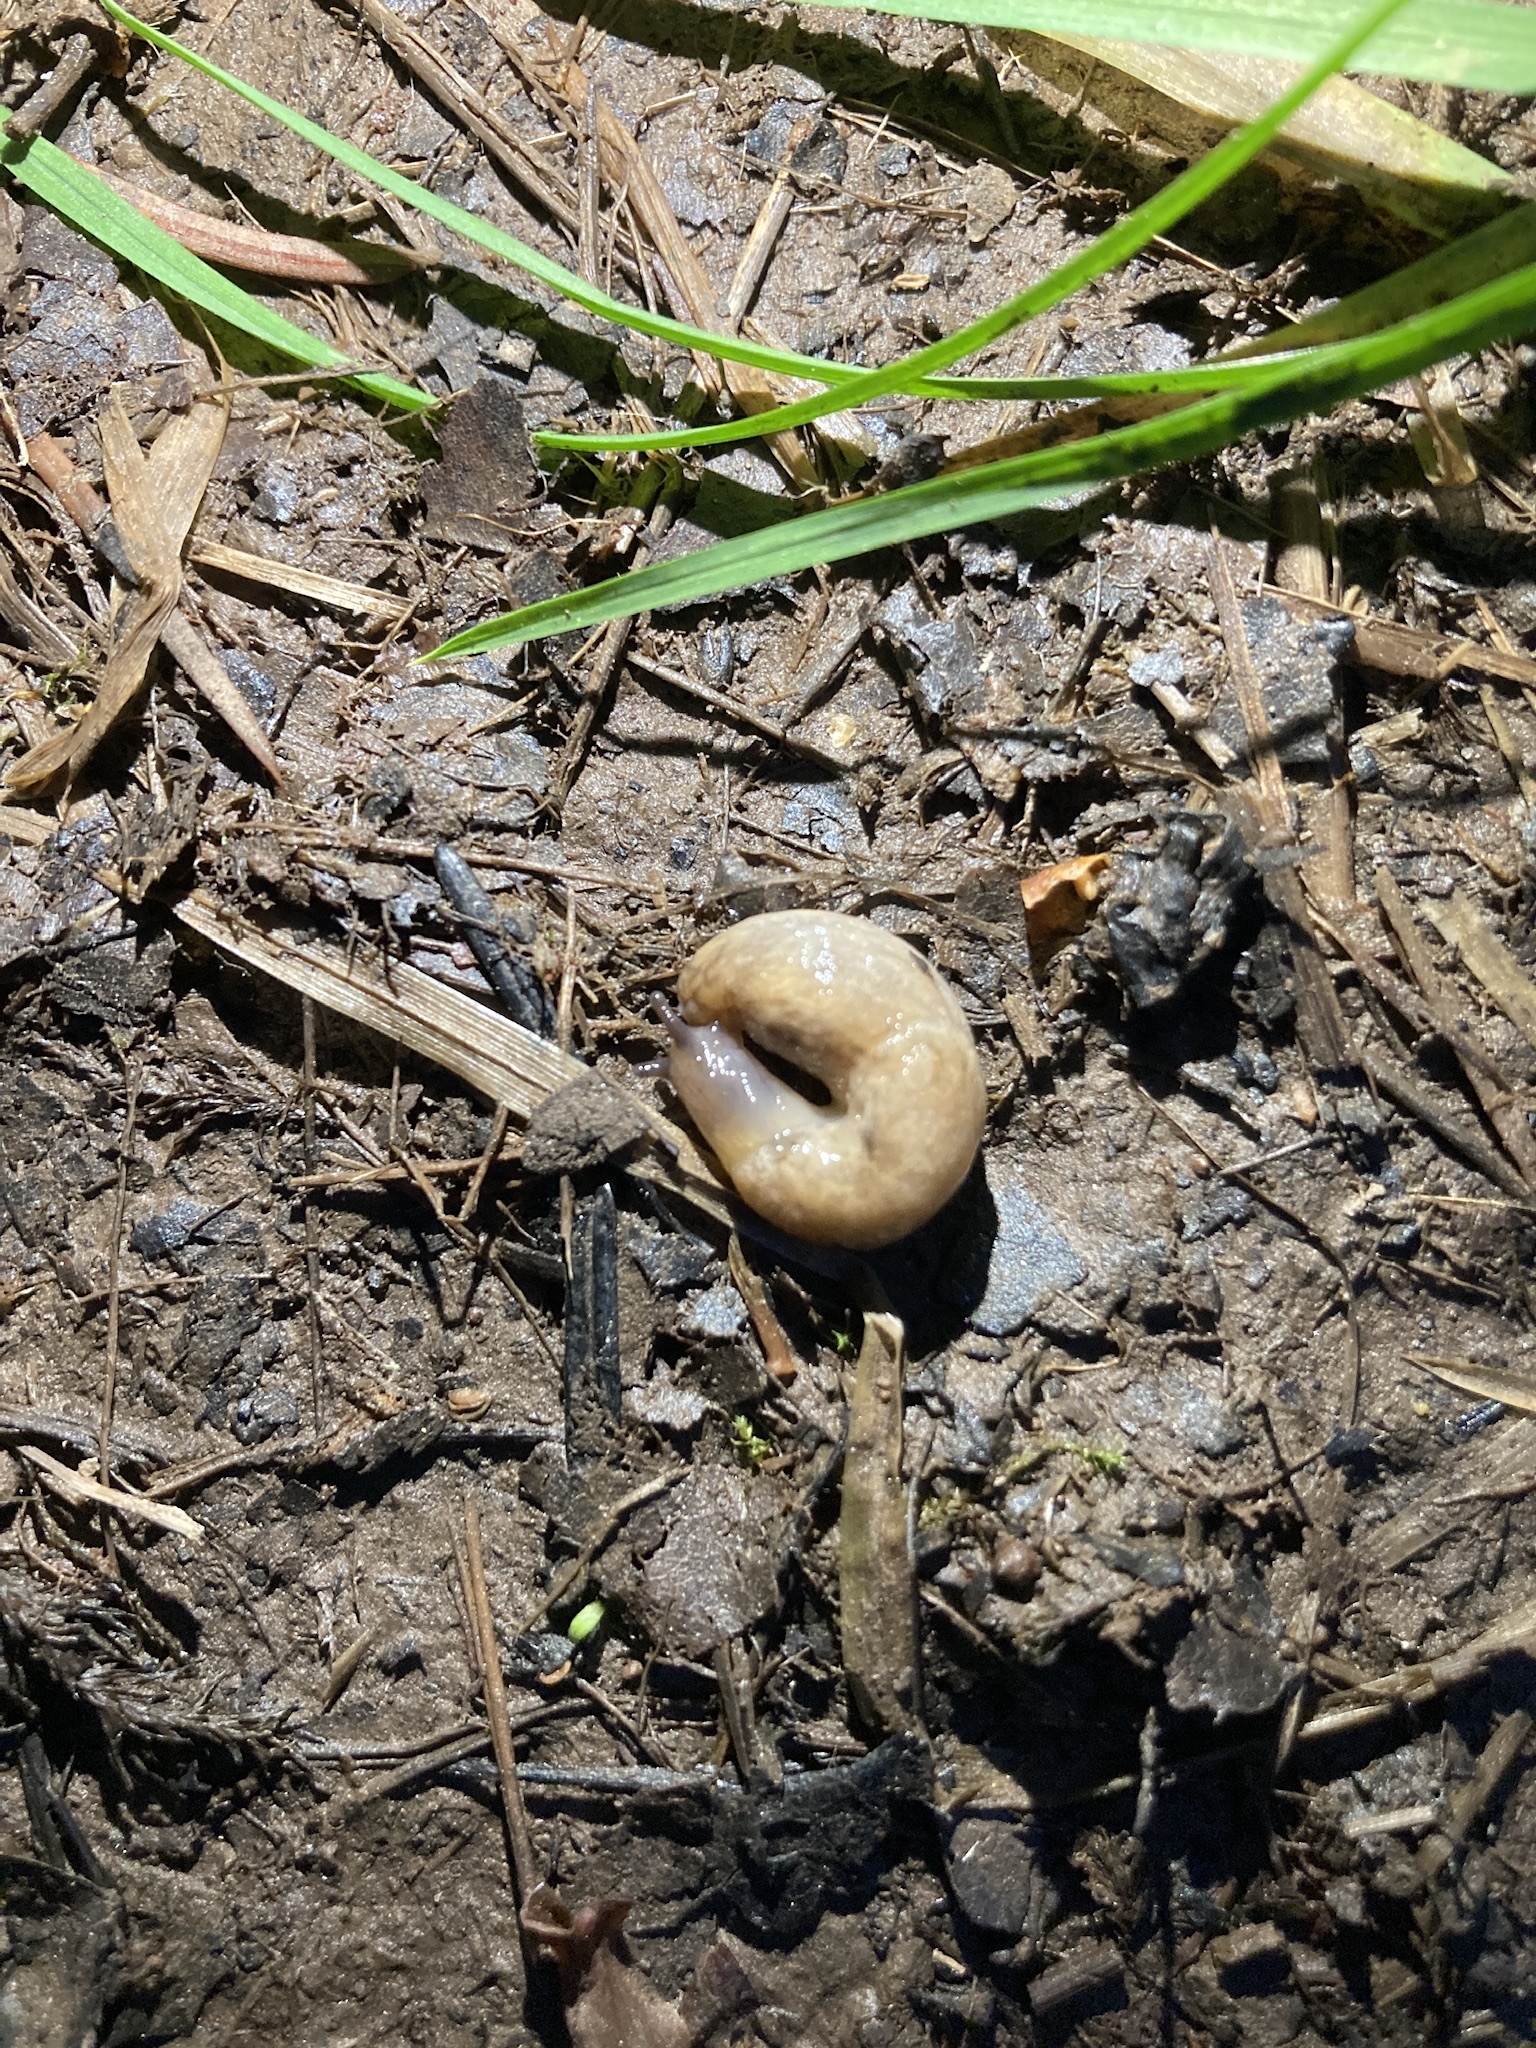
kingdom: Animalia
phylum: Mollusca
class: Gastropoda
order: Stylommatophora
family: Agriolimacidae
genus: Deroceras
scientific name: Deroceras reticulatum
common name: Gray field slug
